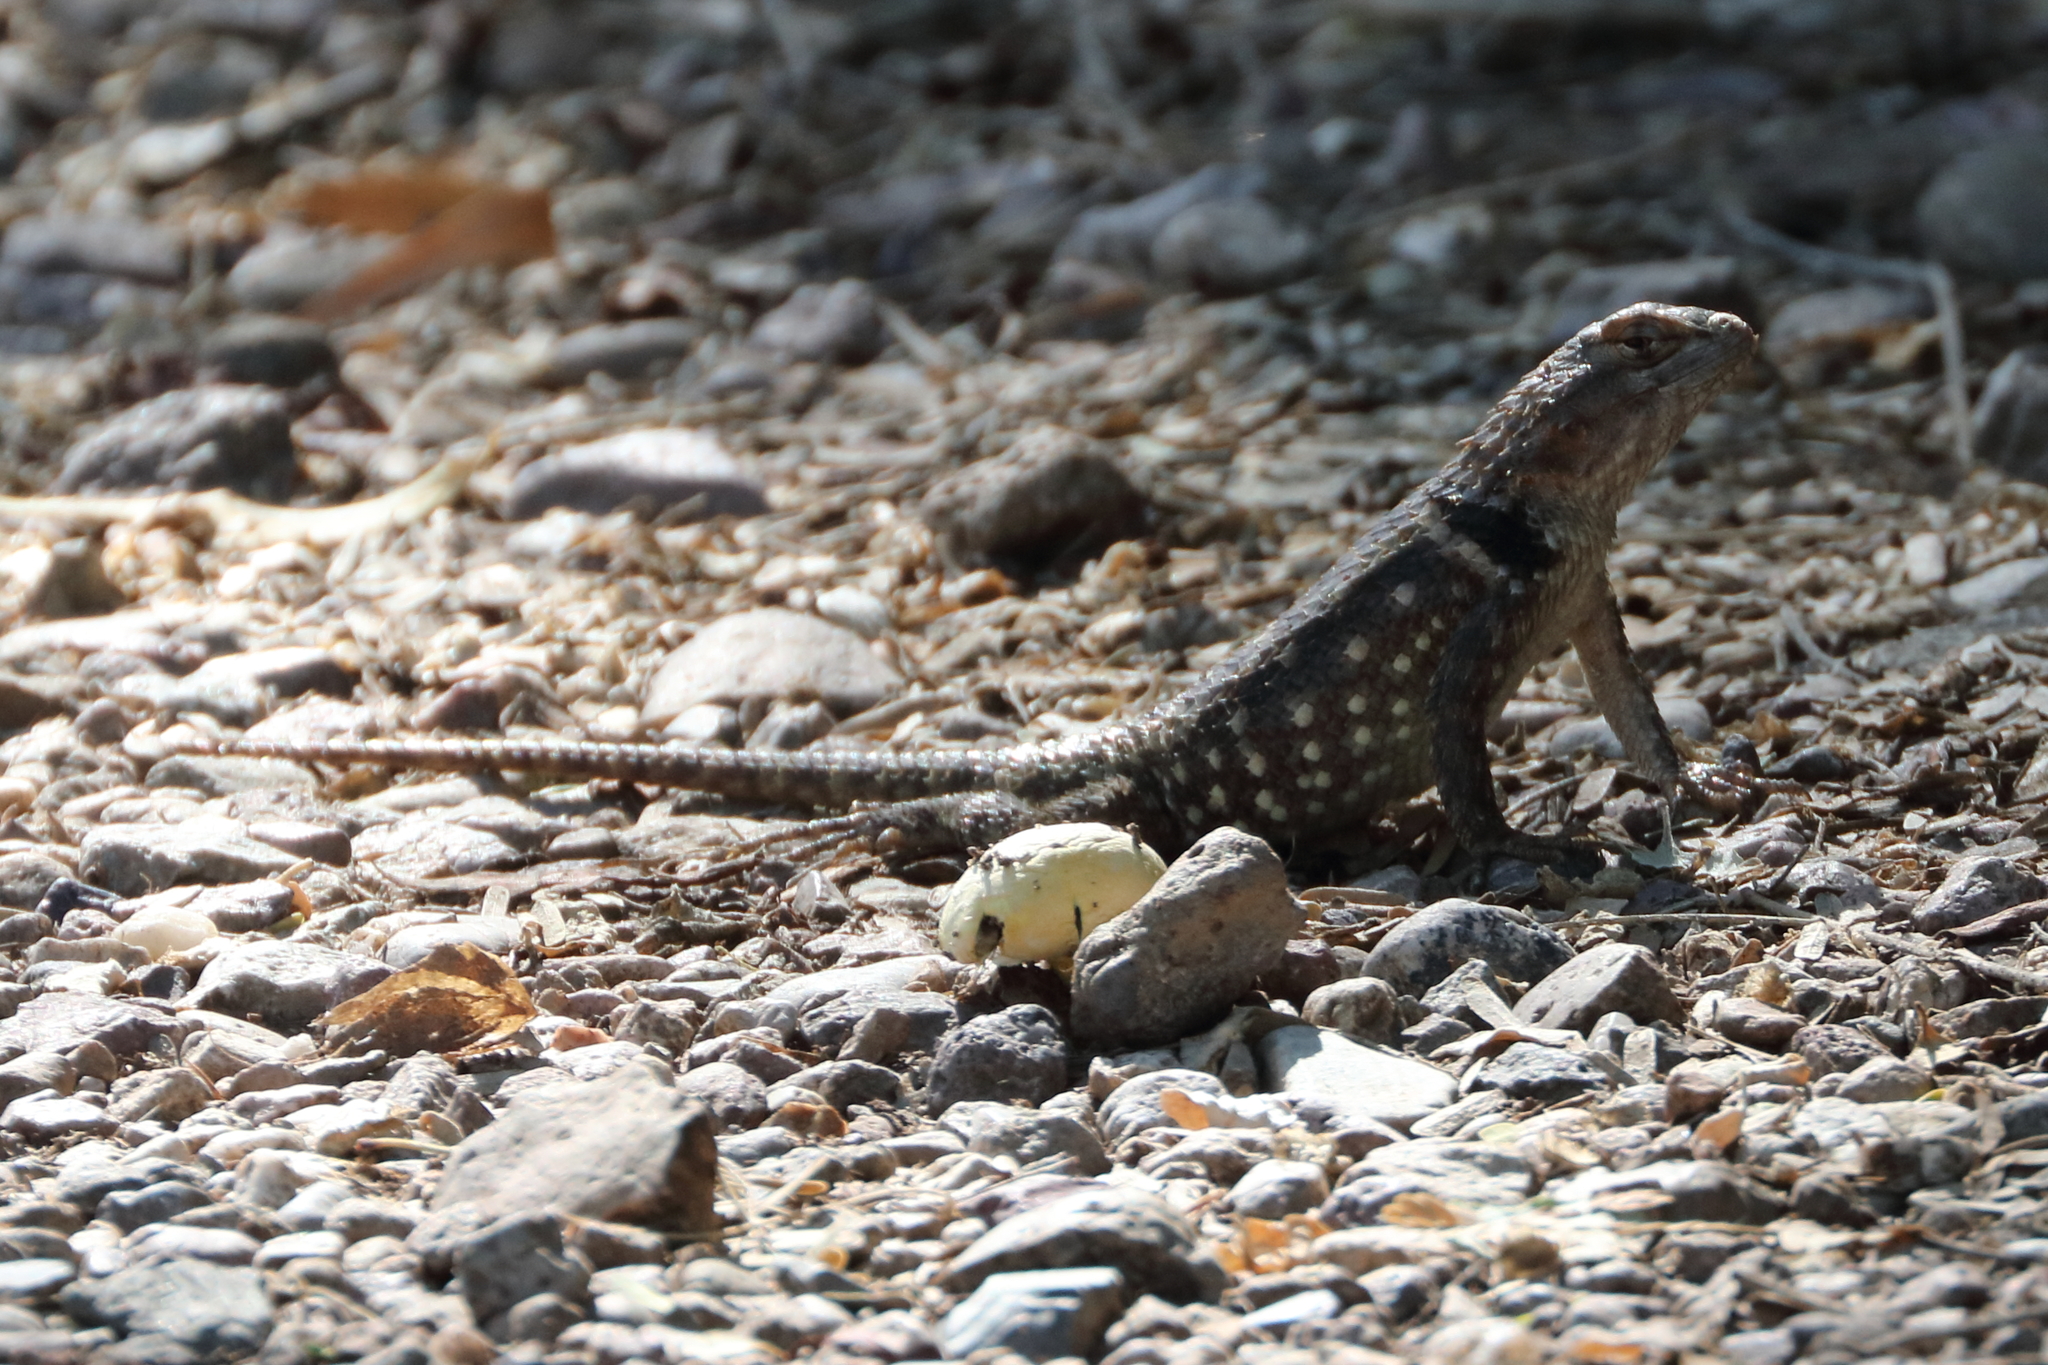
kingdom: Animalia
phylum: Chordata
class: Squamata
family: Phrynosomatidae
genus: Sceloporus
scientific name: Sceloporus magister
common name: Desert spiny lizard
